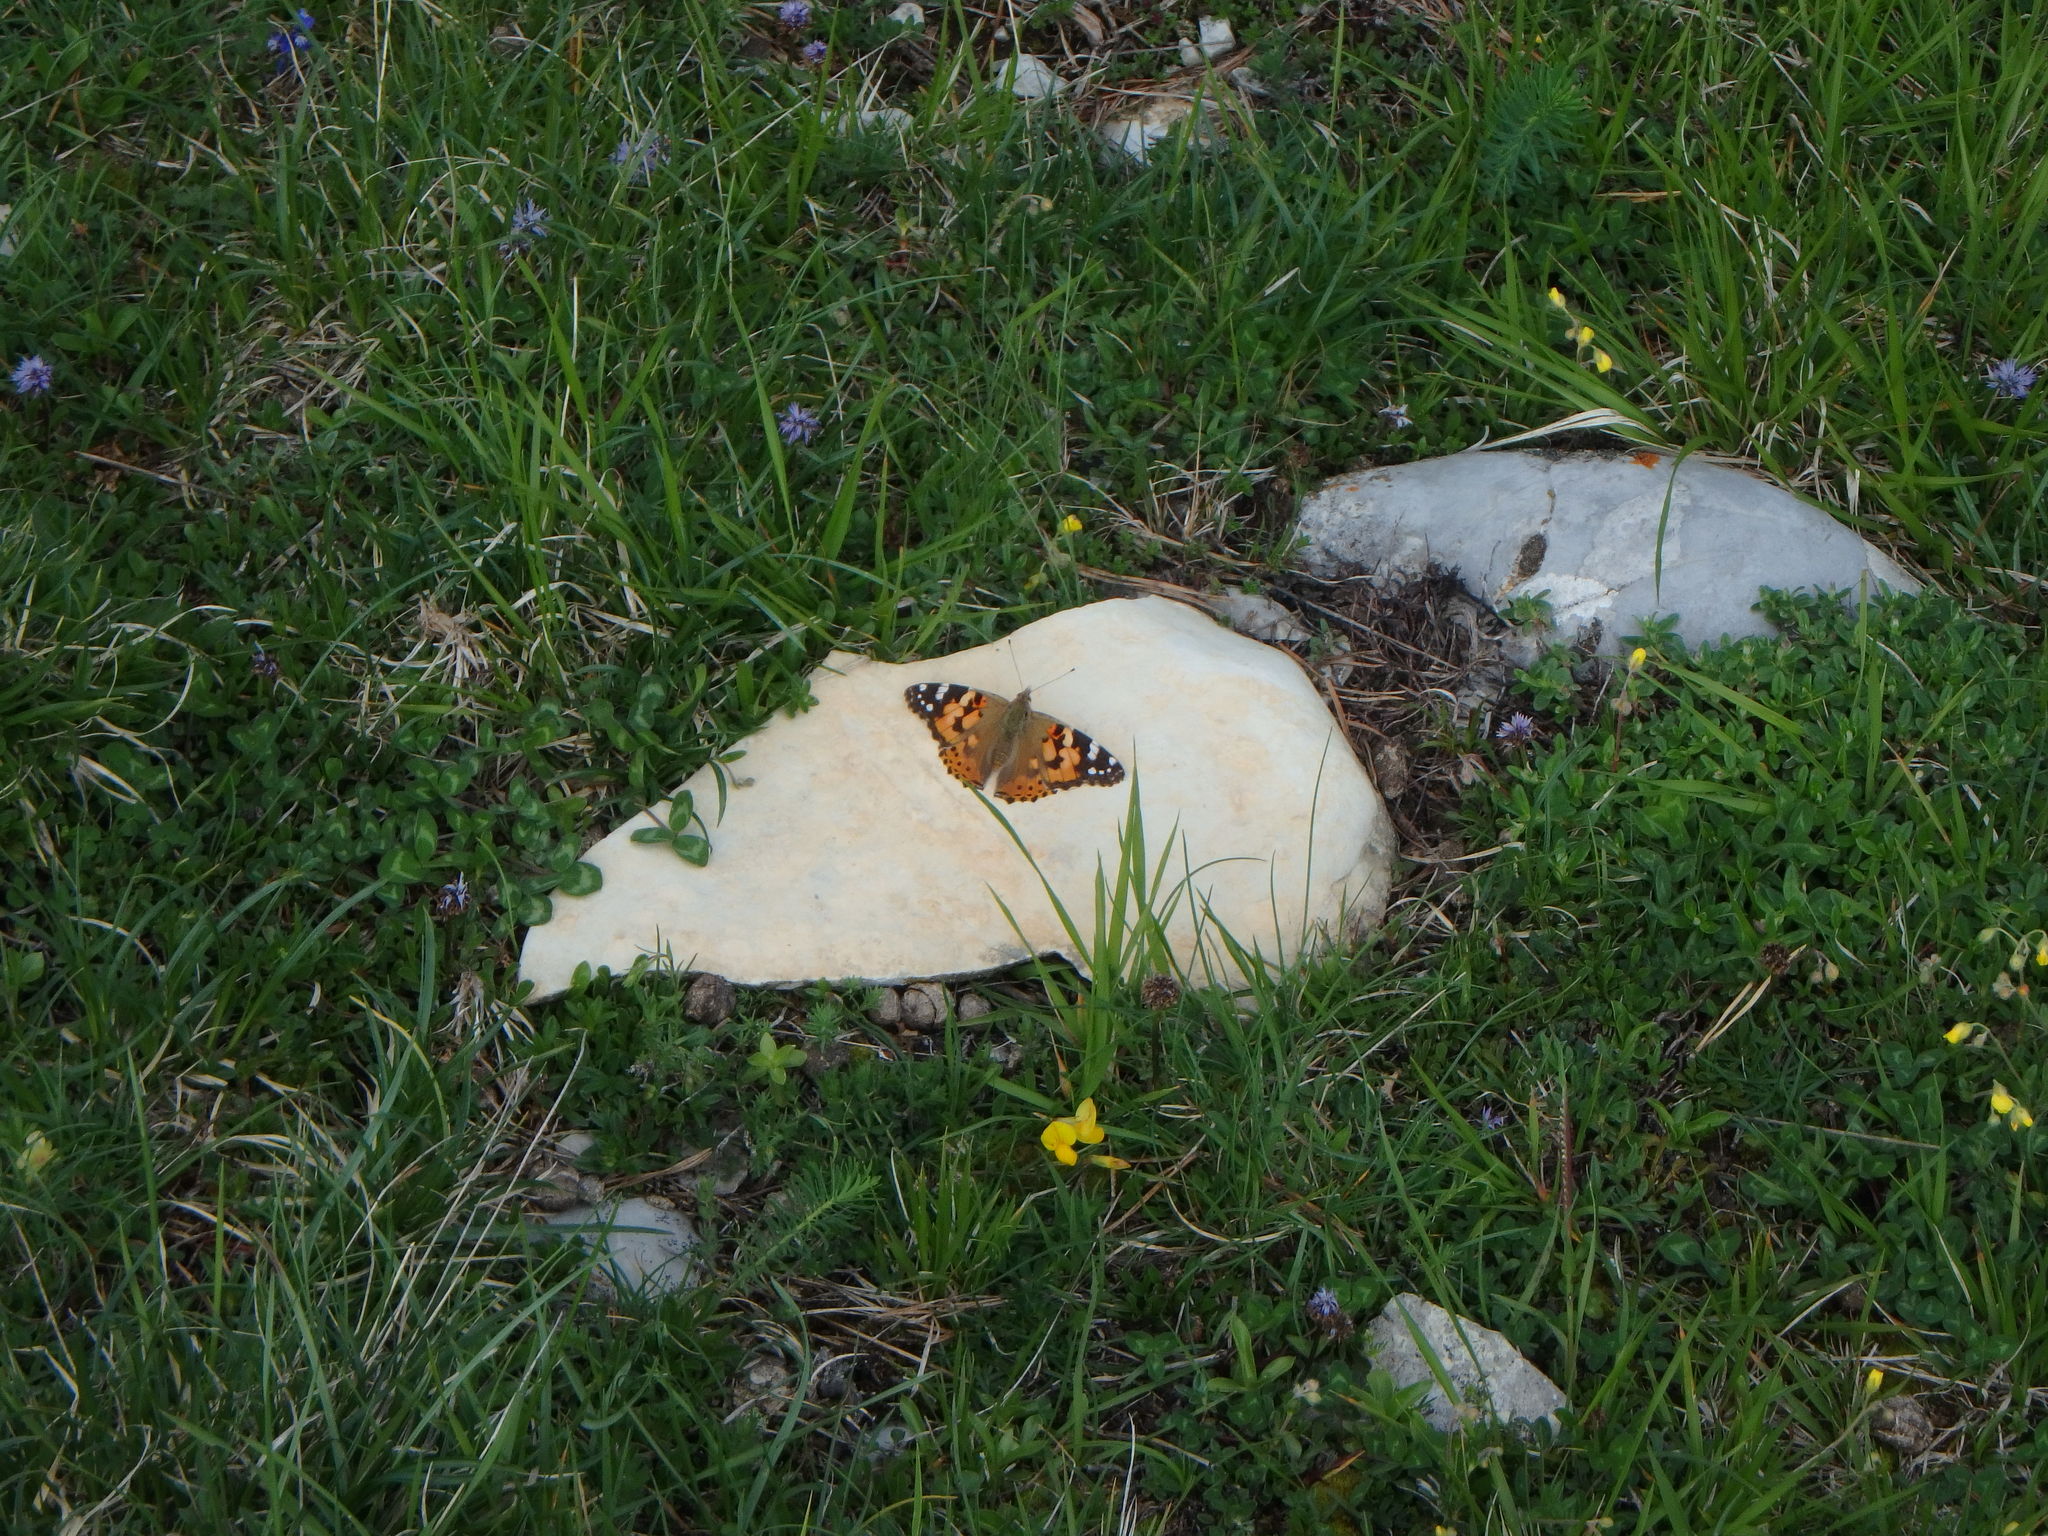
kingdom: Animalia
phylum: Arthropoda
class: Insecta
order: Lepidoptera
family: Nymphalidae
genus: Vanessa
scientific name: Vanessa cardui
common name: Painted lady
